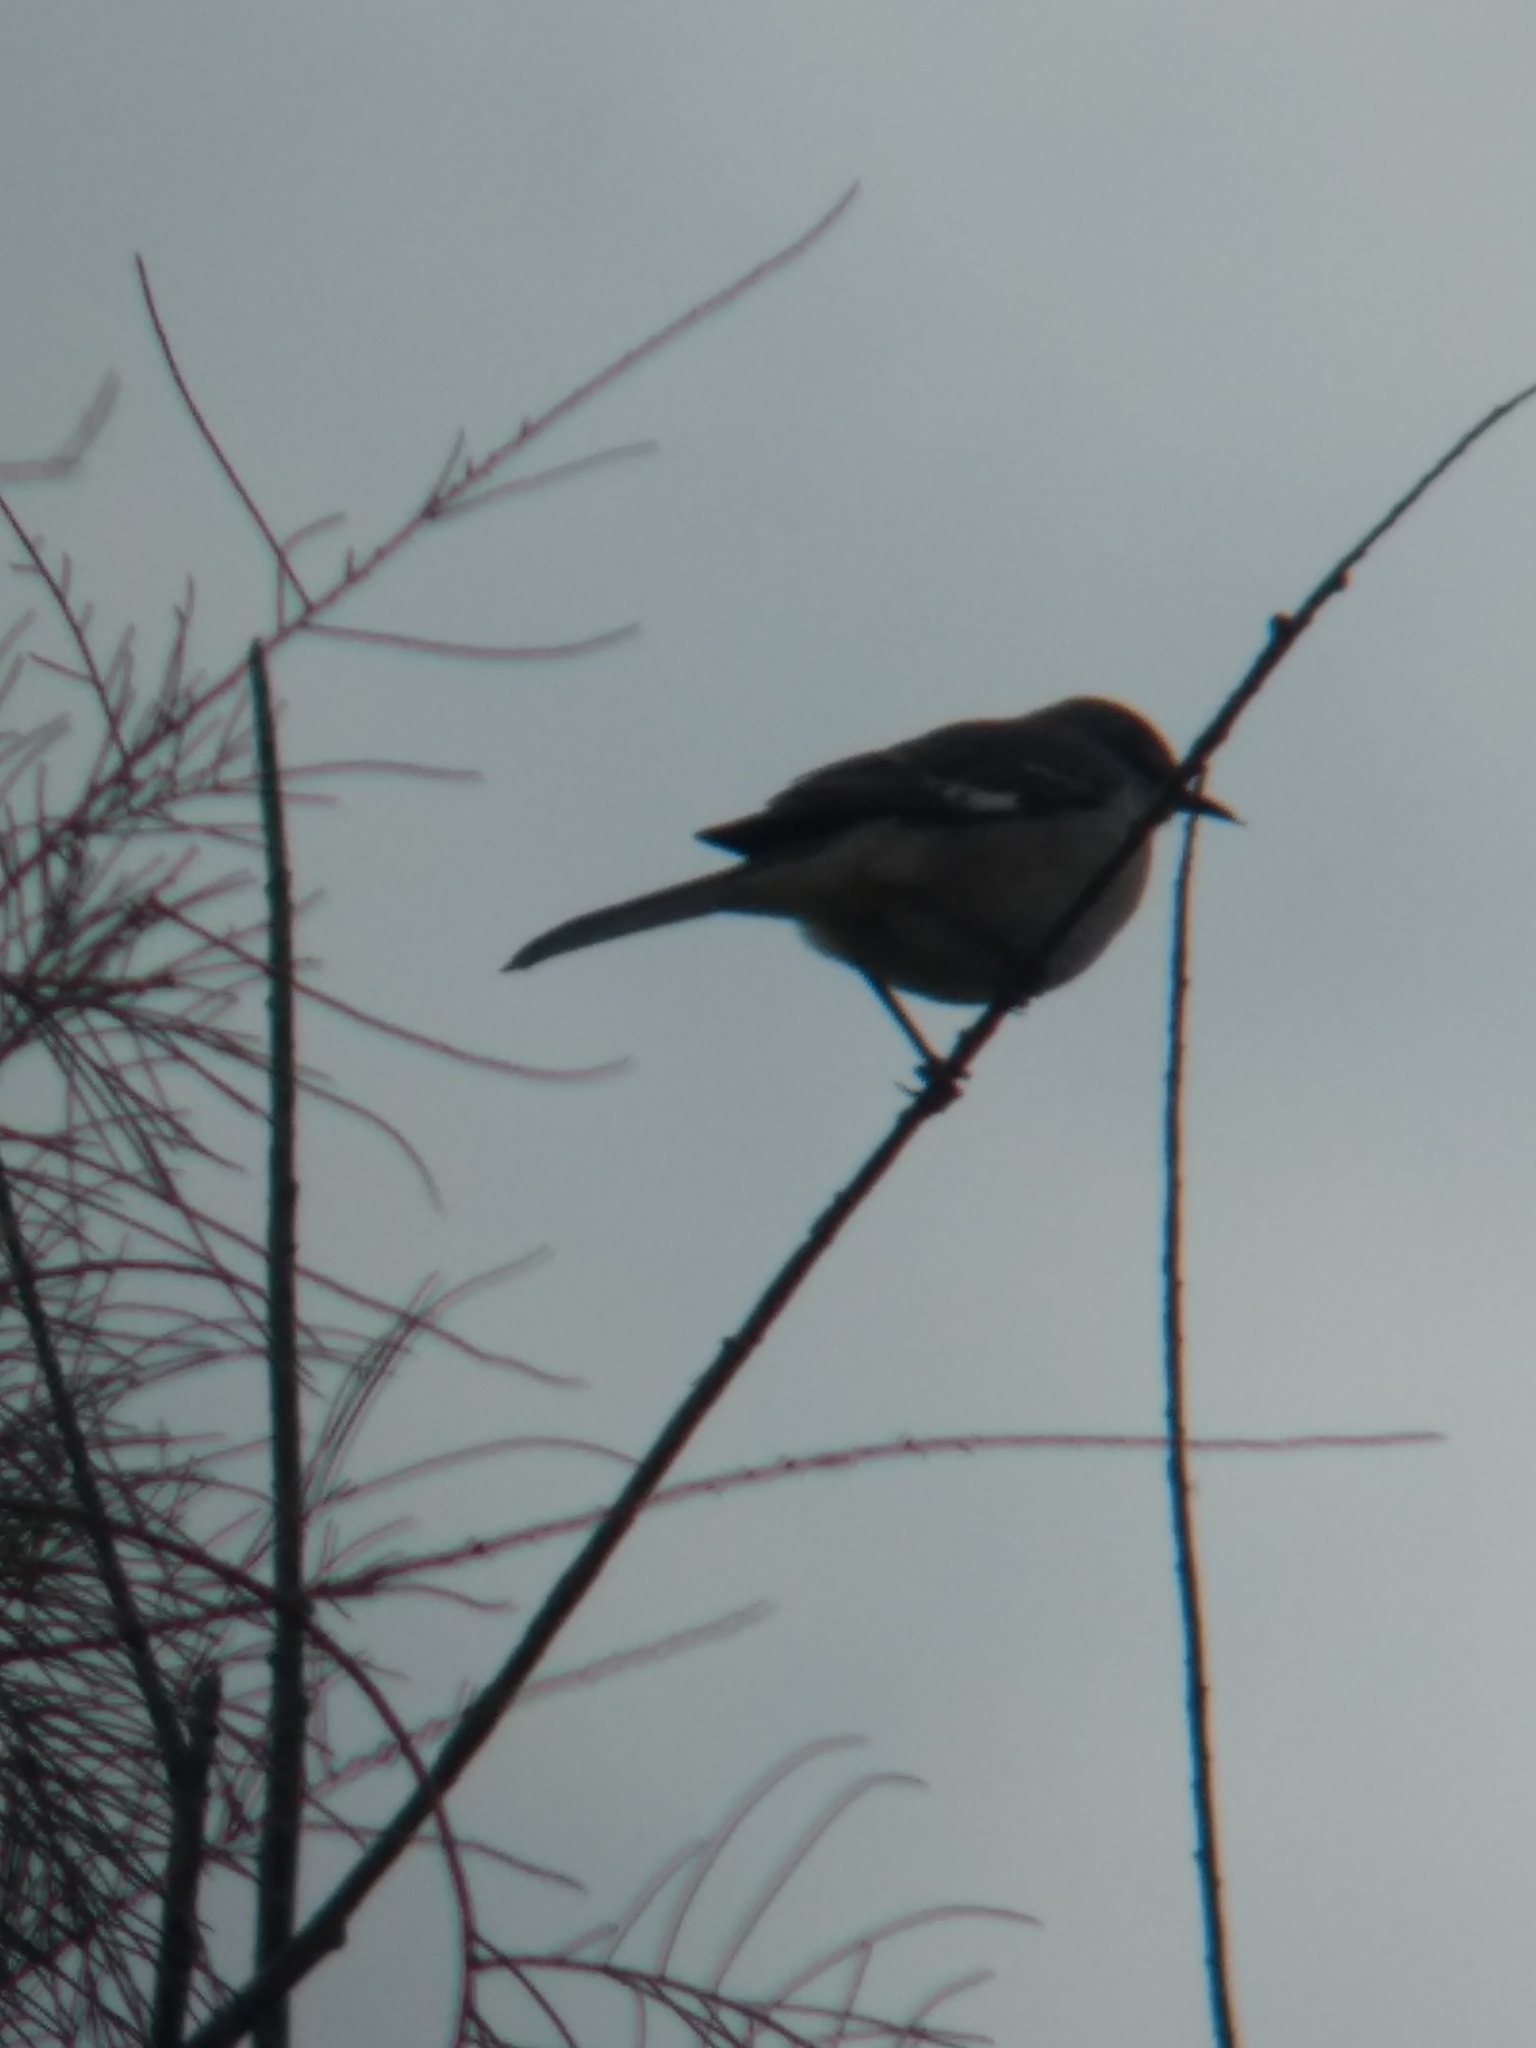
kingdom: Animalia
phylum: Chordata
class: Aves
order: Passeriformes
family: Mimidae
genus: Mimus
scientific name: Mimus polyglottos
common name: Northern mockingbird
